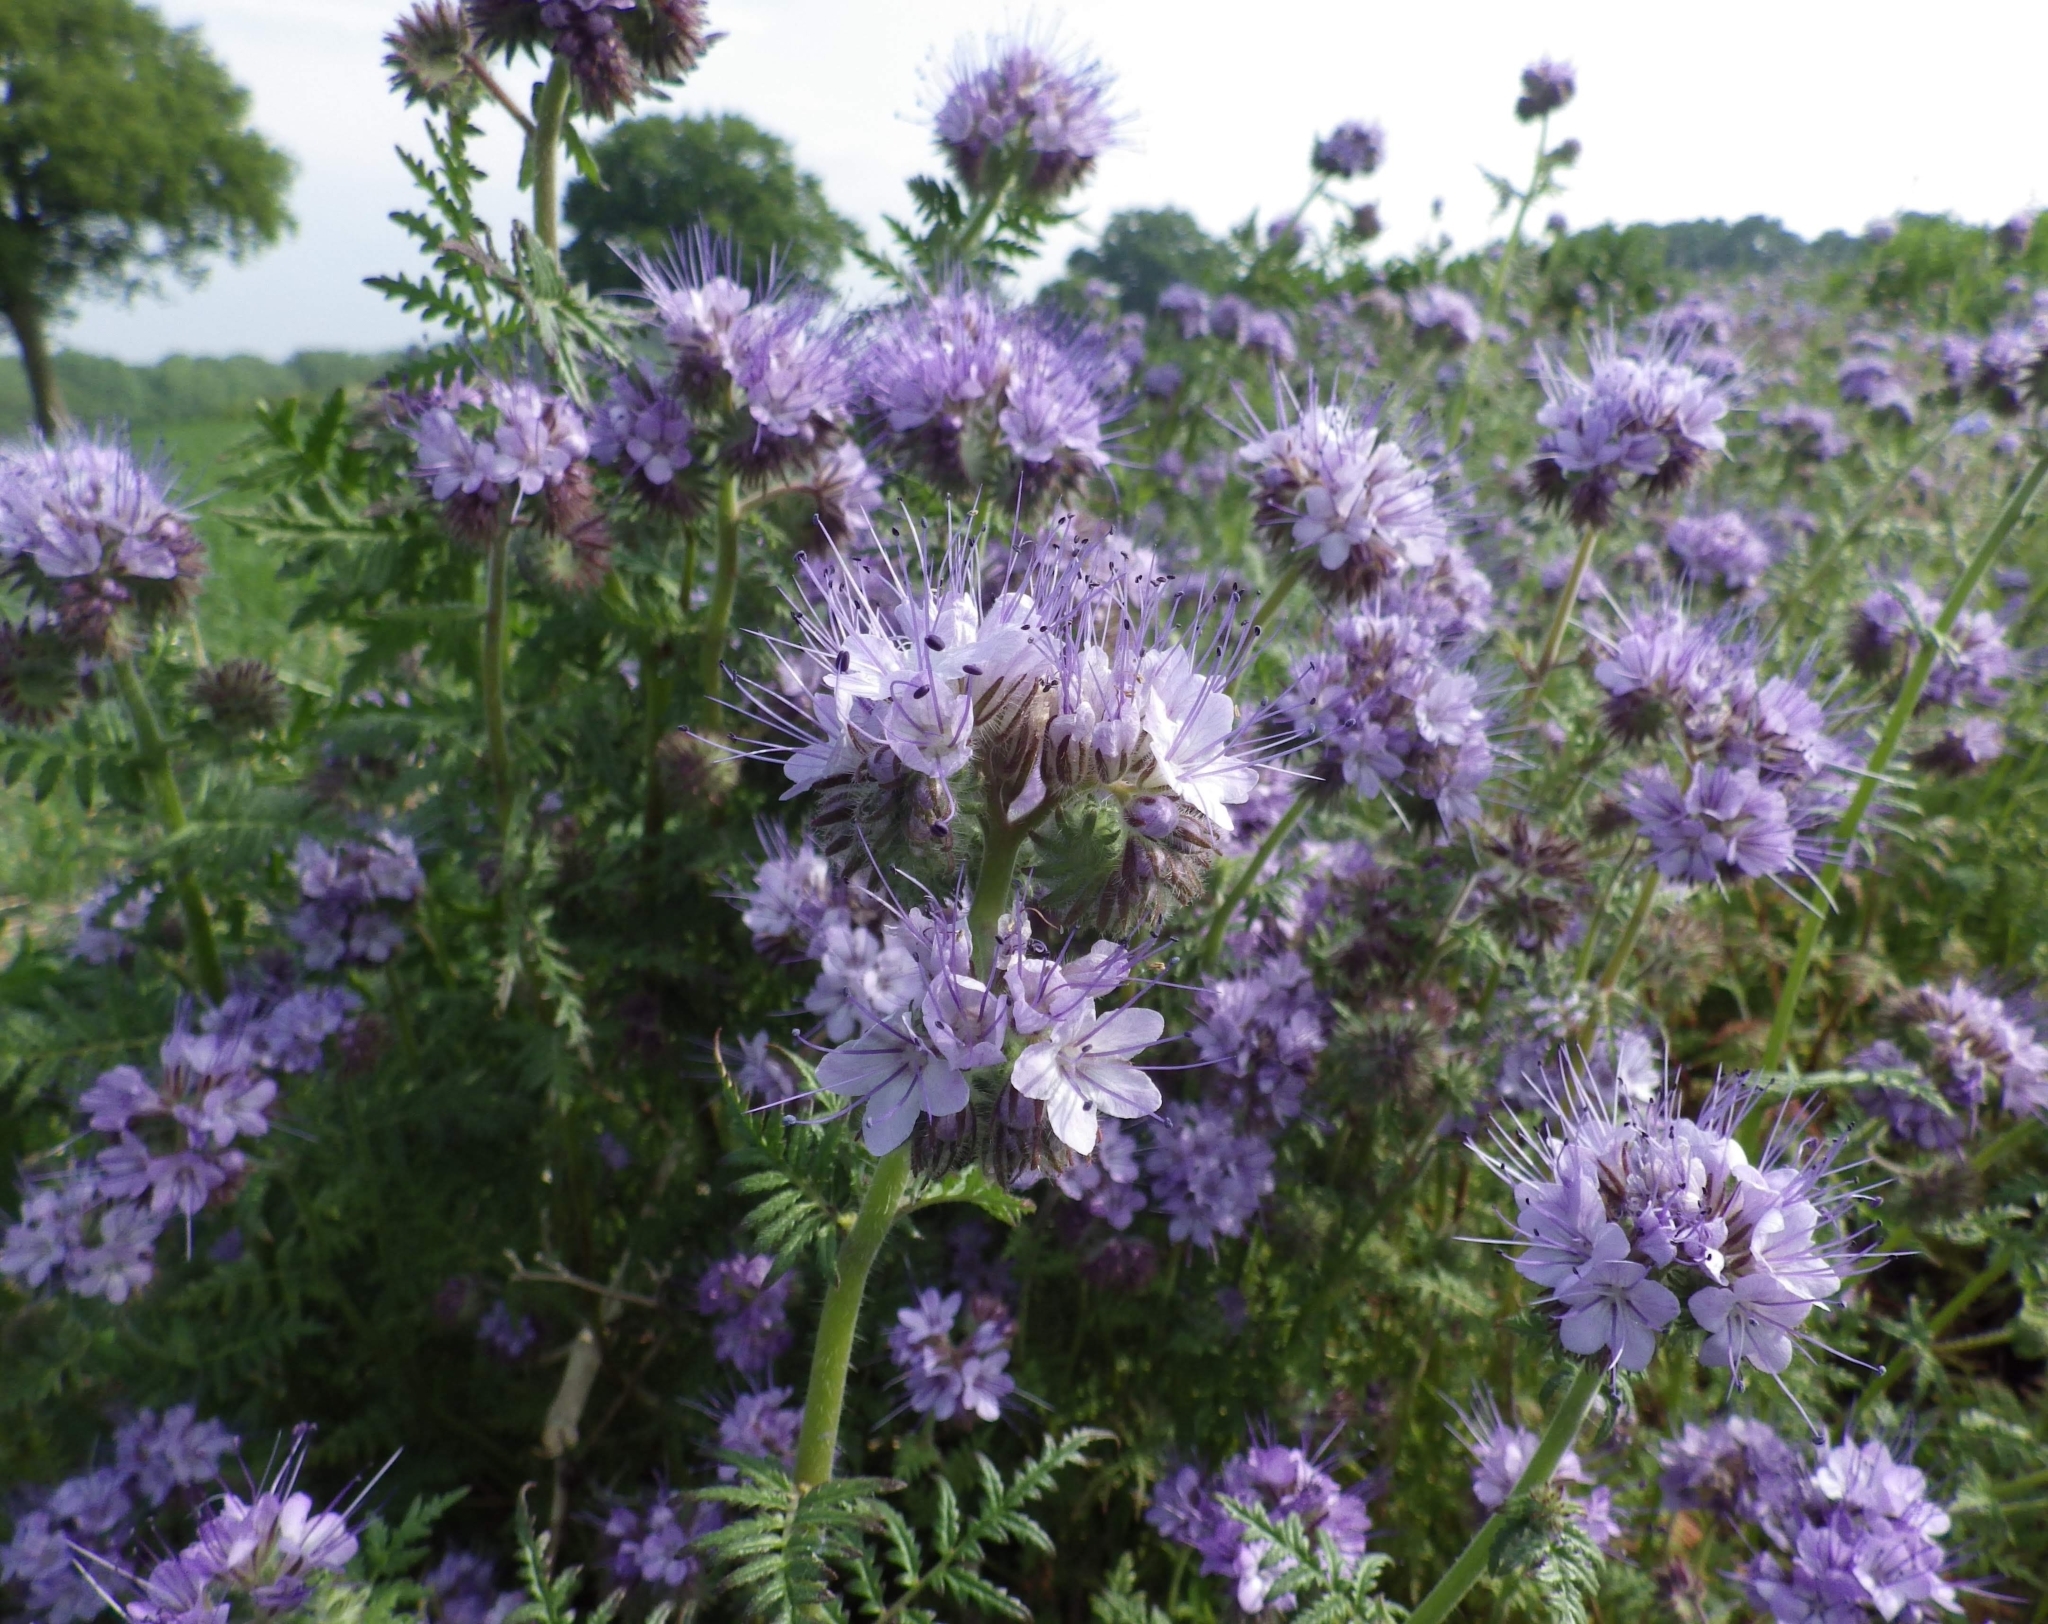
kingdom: Plantae
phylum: Tracheophyta
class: Magnoliopsida
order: Boraginales
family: Hydrophyllaceae
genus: Phacelia
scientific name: Phacelia tanacetifolia
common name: Phacelia
